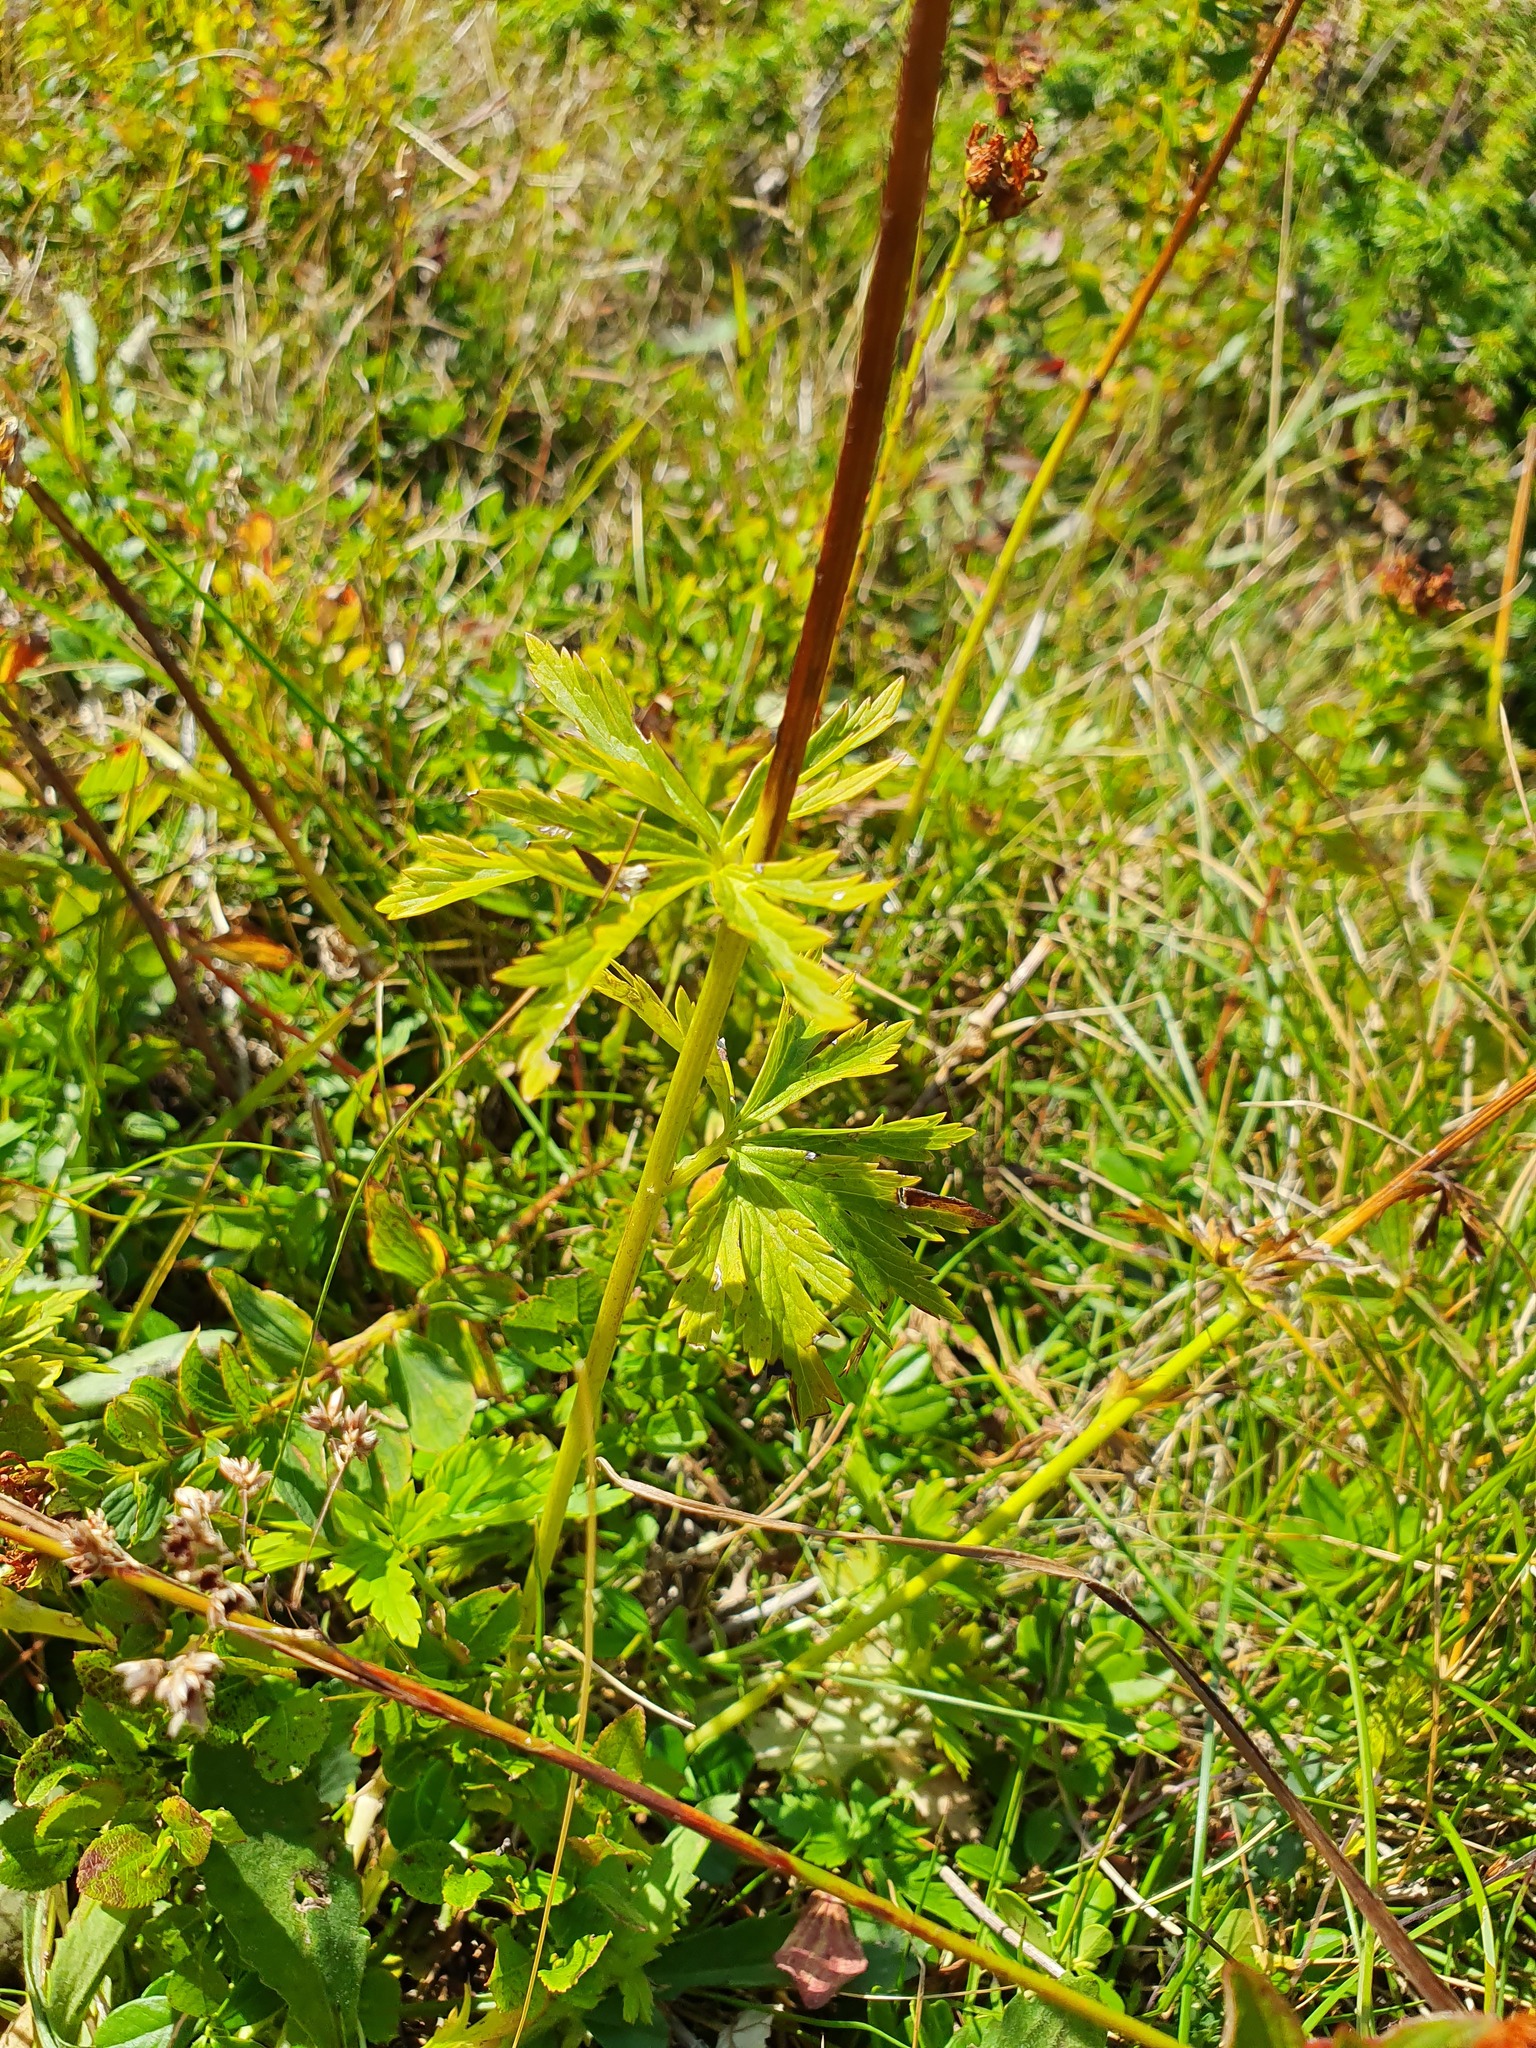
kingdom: Plantae
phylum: Tracheophyta
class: Magnoliopsida
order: Ranunculales
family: Ranunculaceae
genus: Trollius
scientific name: Trollius europaeus
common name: European globeflower
